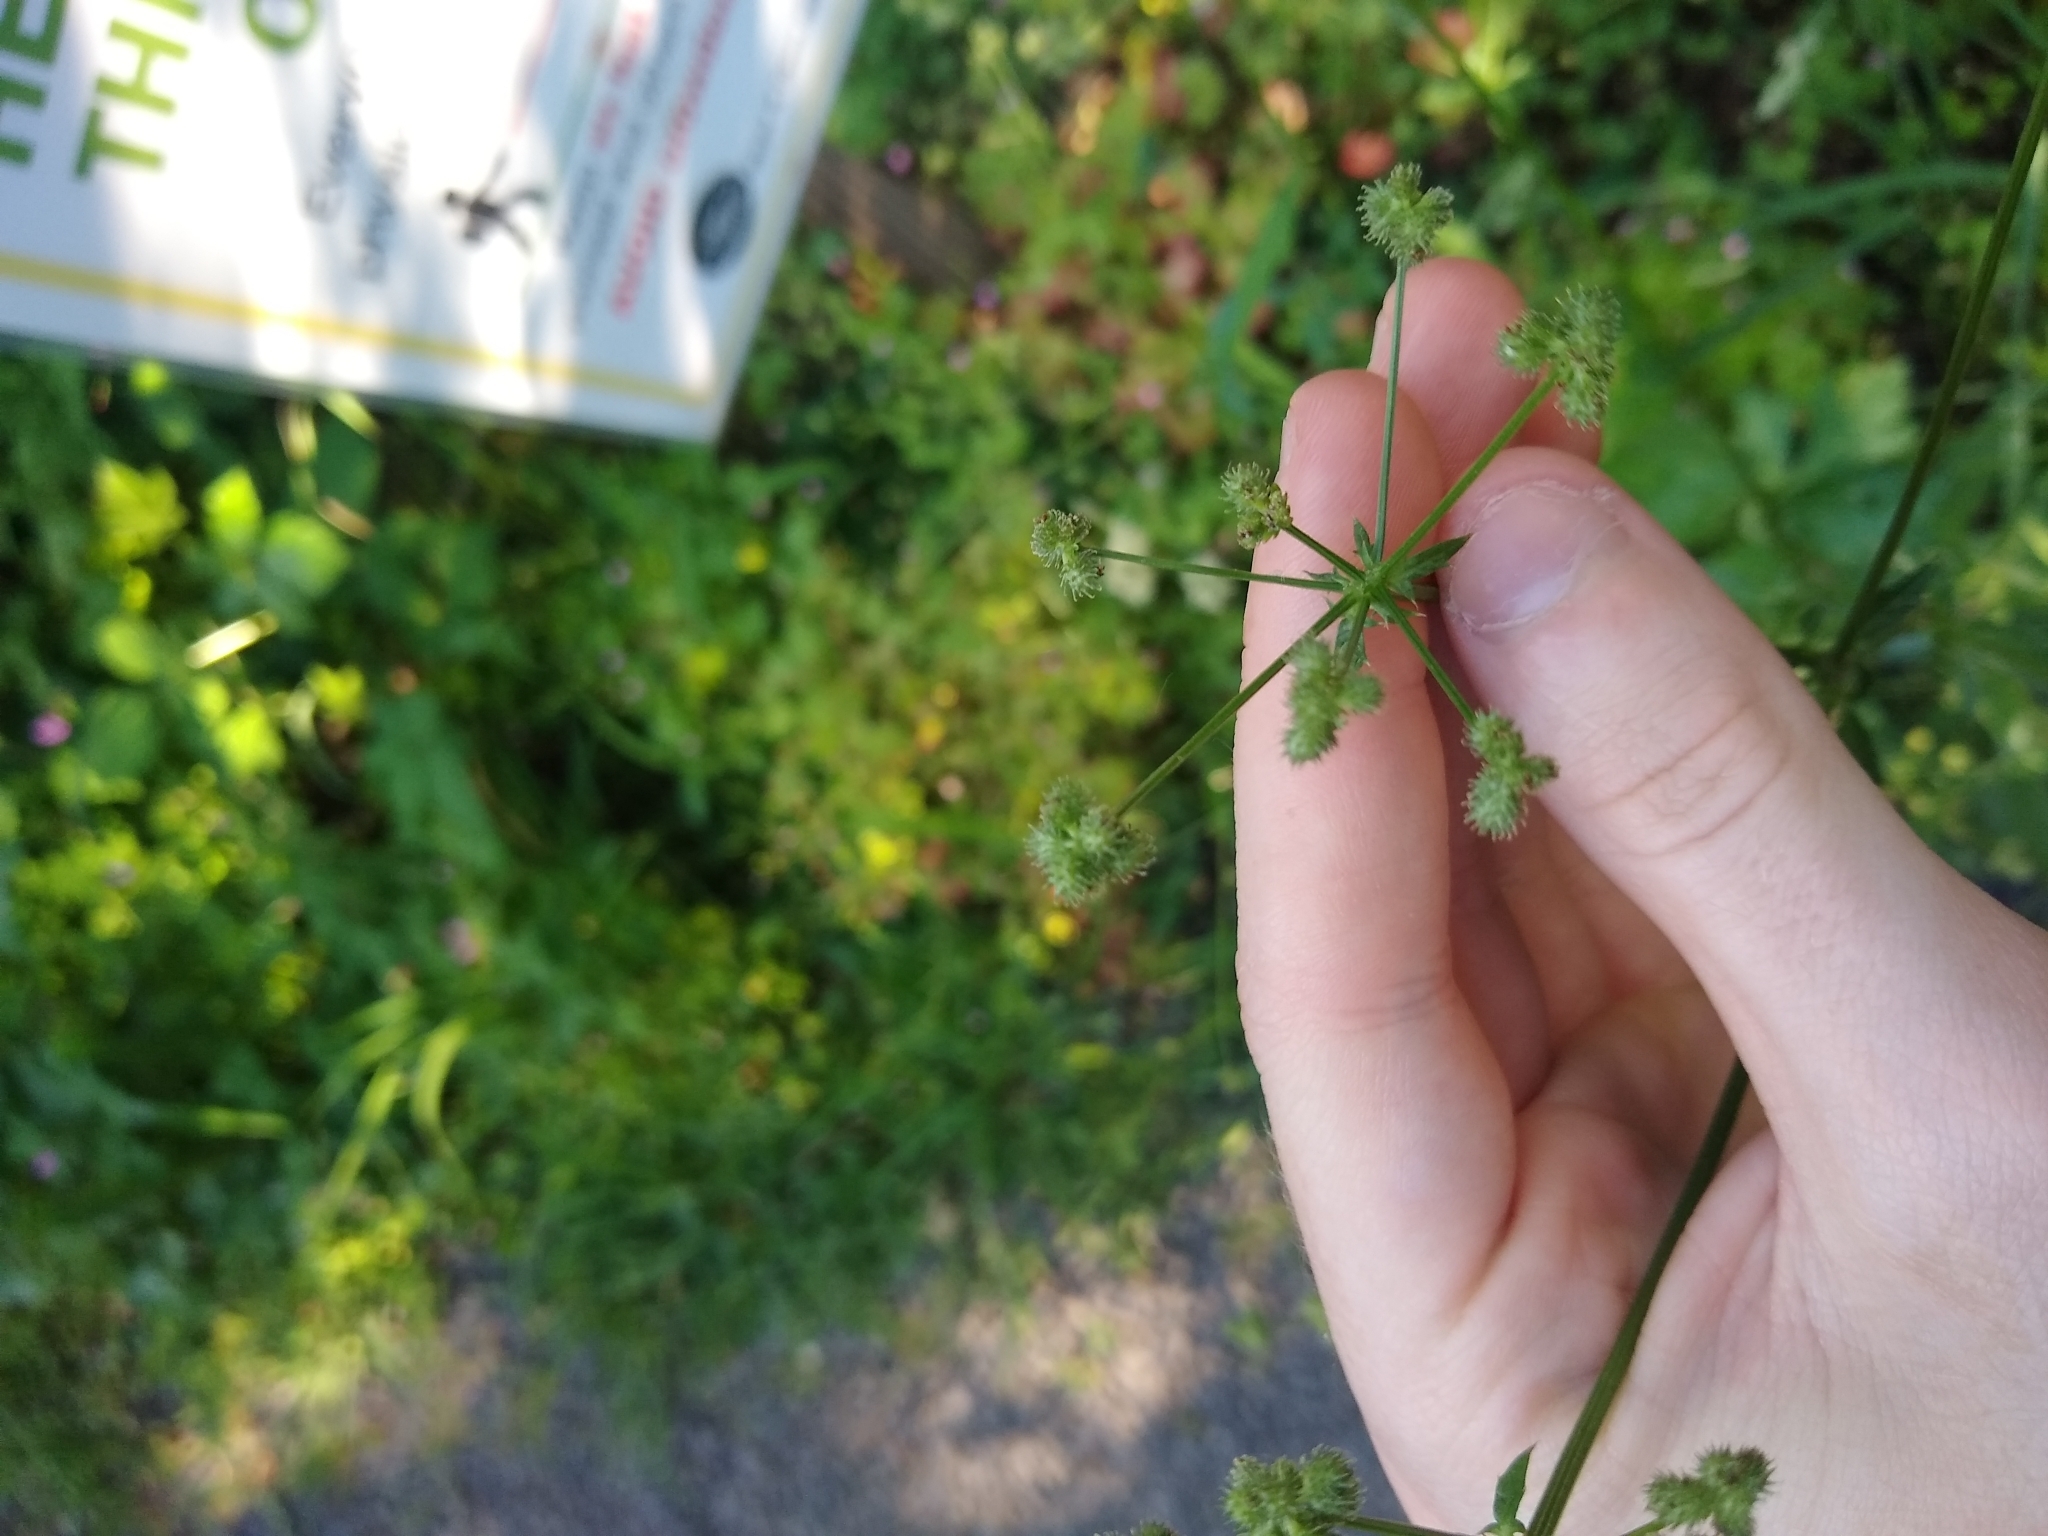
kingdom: Plantae
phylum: Tracheophyta
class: Magnoliopsida
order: Apiales
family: Apiaceae
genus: Sanicula
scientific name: Sanicula crassicaulis
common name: Western snakeroot
